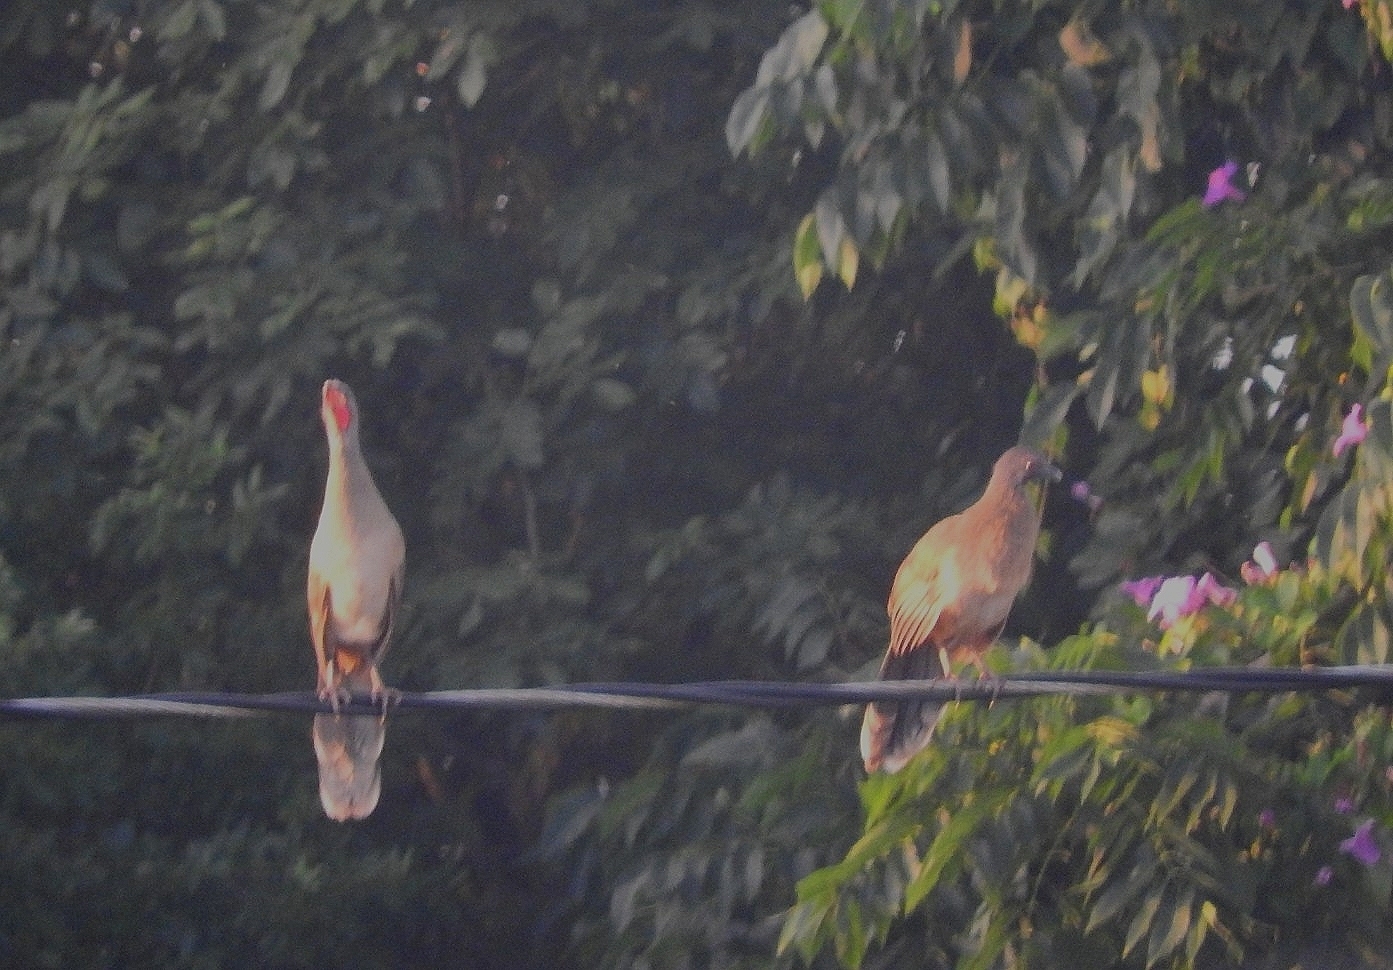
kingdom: Animalia
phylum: Chordata
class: Aves
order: Galliformes
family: Cracidae
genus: Ortalis
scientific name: Ortalis vetula
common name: Plain chachalaca
